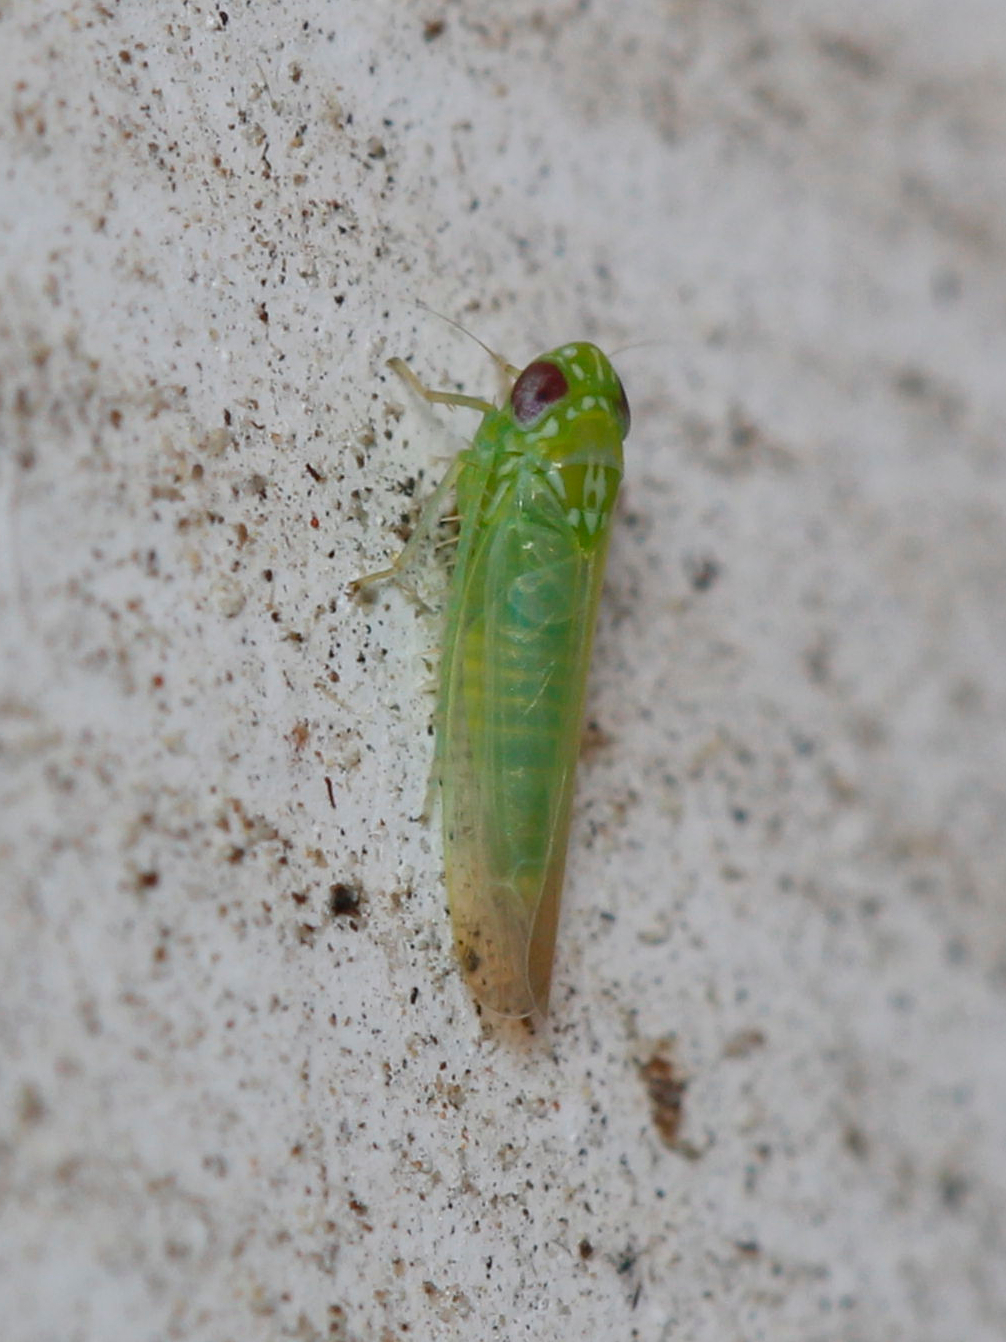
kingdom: Animalia
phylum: Arthropoda
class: Insecta
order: Hemiptera
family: Cicadellidae
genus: Empoasca
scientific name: Empoasca fabae
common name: Potato leafhopper
